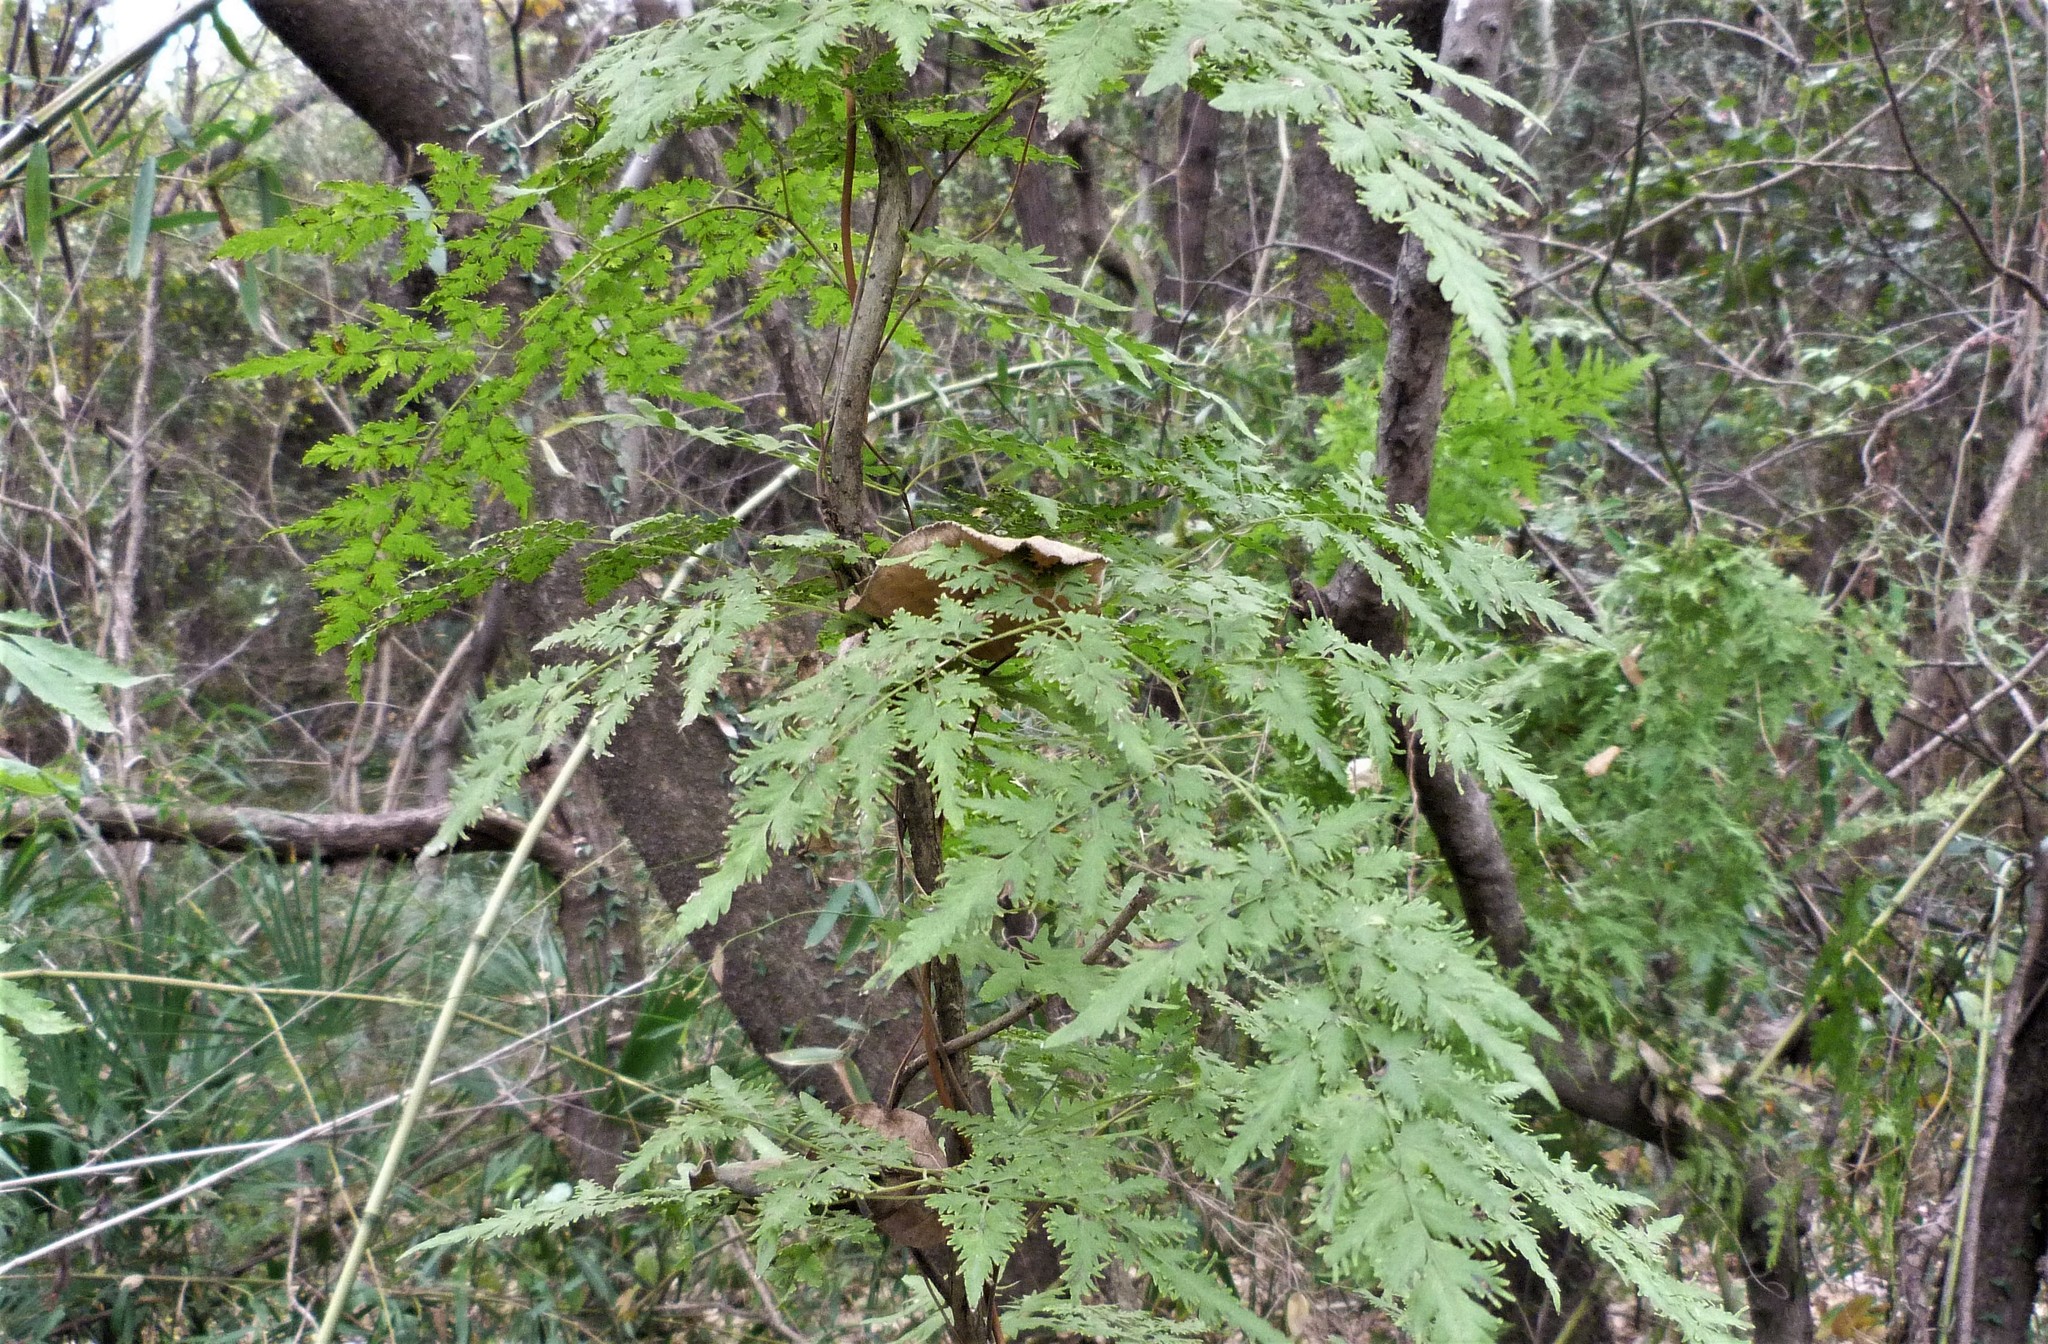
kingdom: Plantae
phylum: Tracheophyta
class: Polypodiopsida
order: Schizaeales
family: Lygodiaceae
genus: Lygodium
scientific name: Lygodium japonicum
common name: Japanese climbing fern
